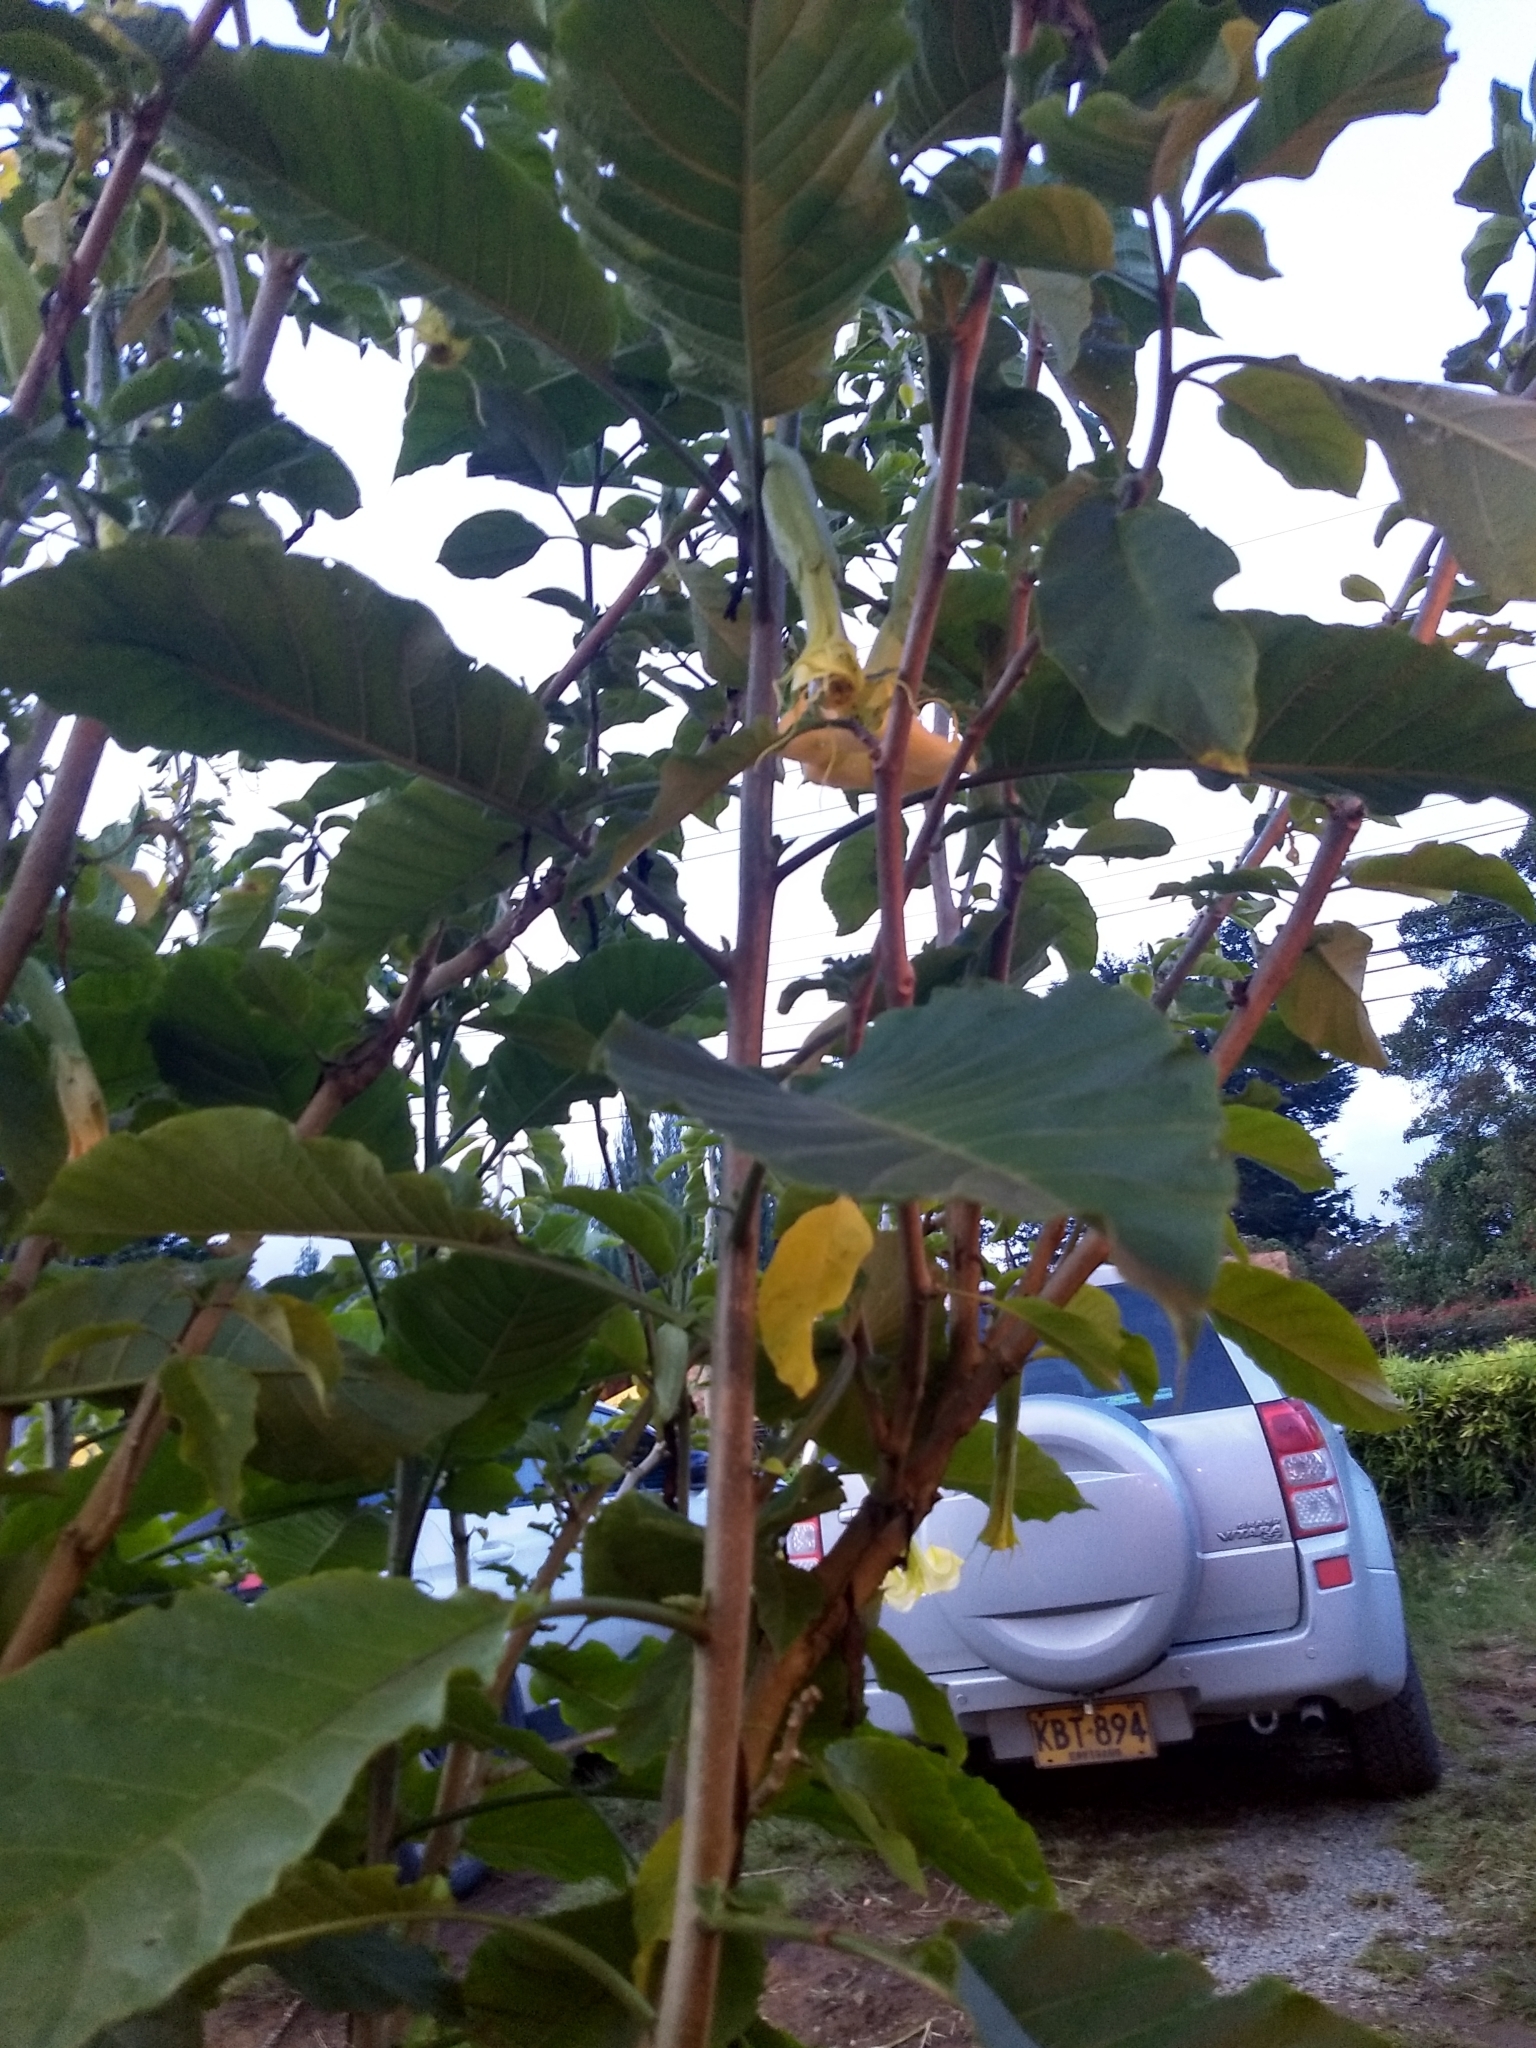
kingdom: Plantae
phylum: Tracheophyta
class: Magnoliopsida
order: Solanales
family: Solanaceae
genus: Brugmansia
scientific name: Brugmansia arborea
